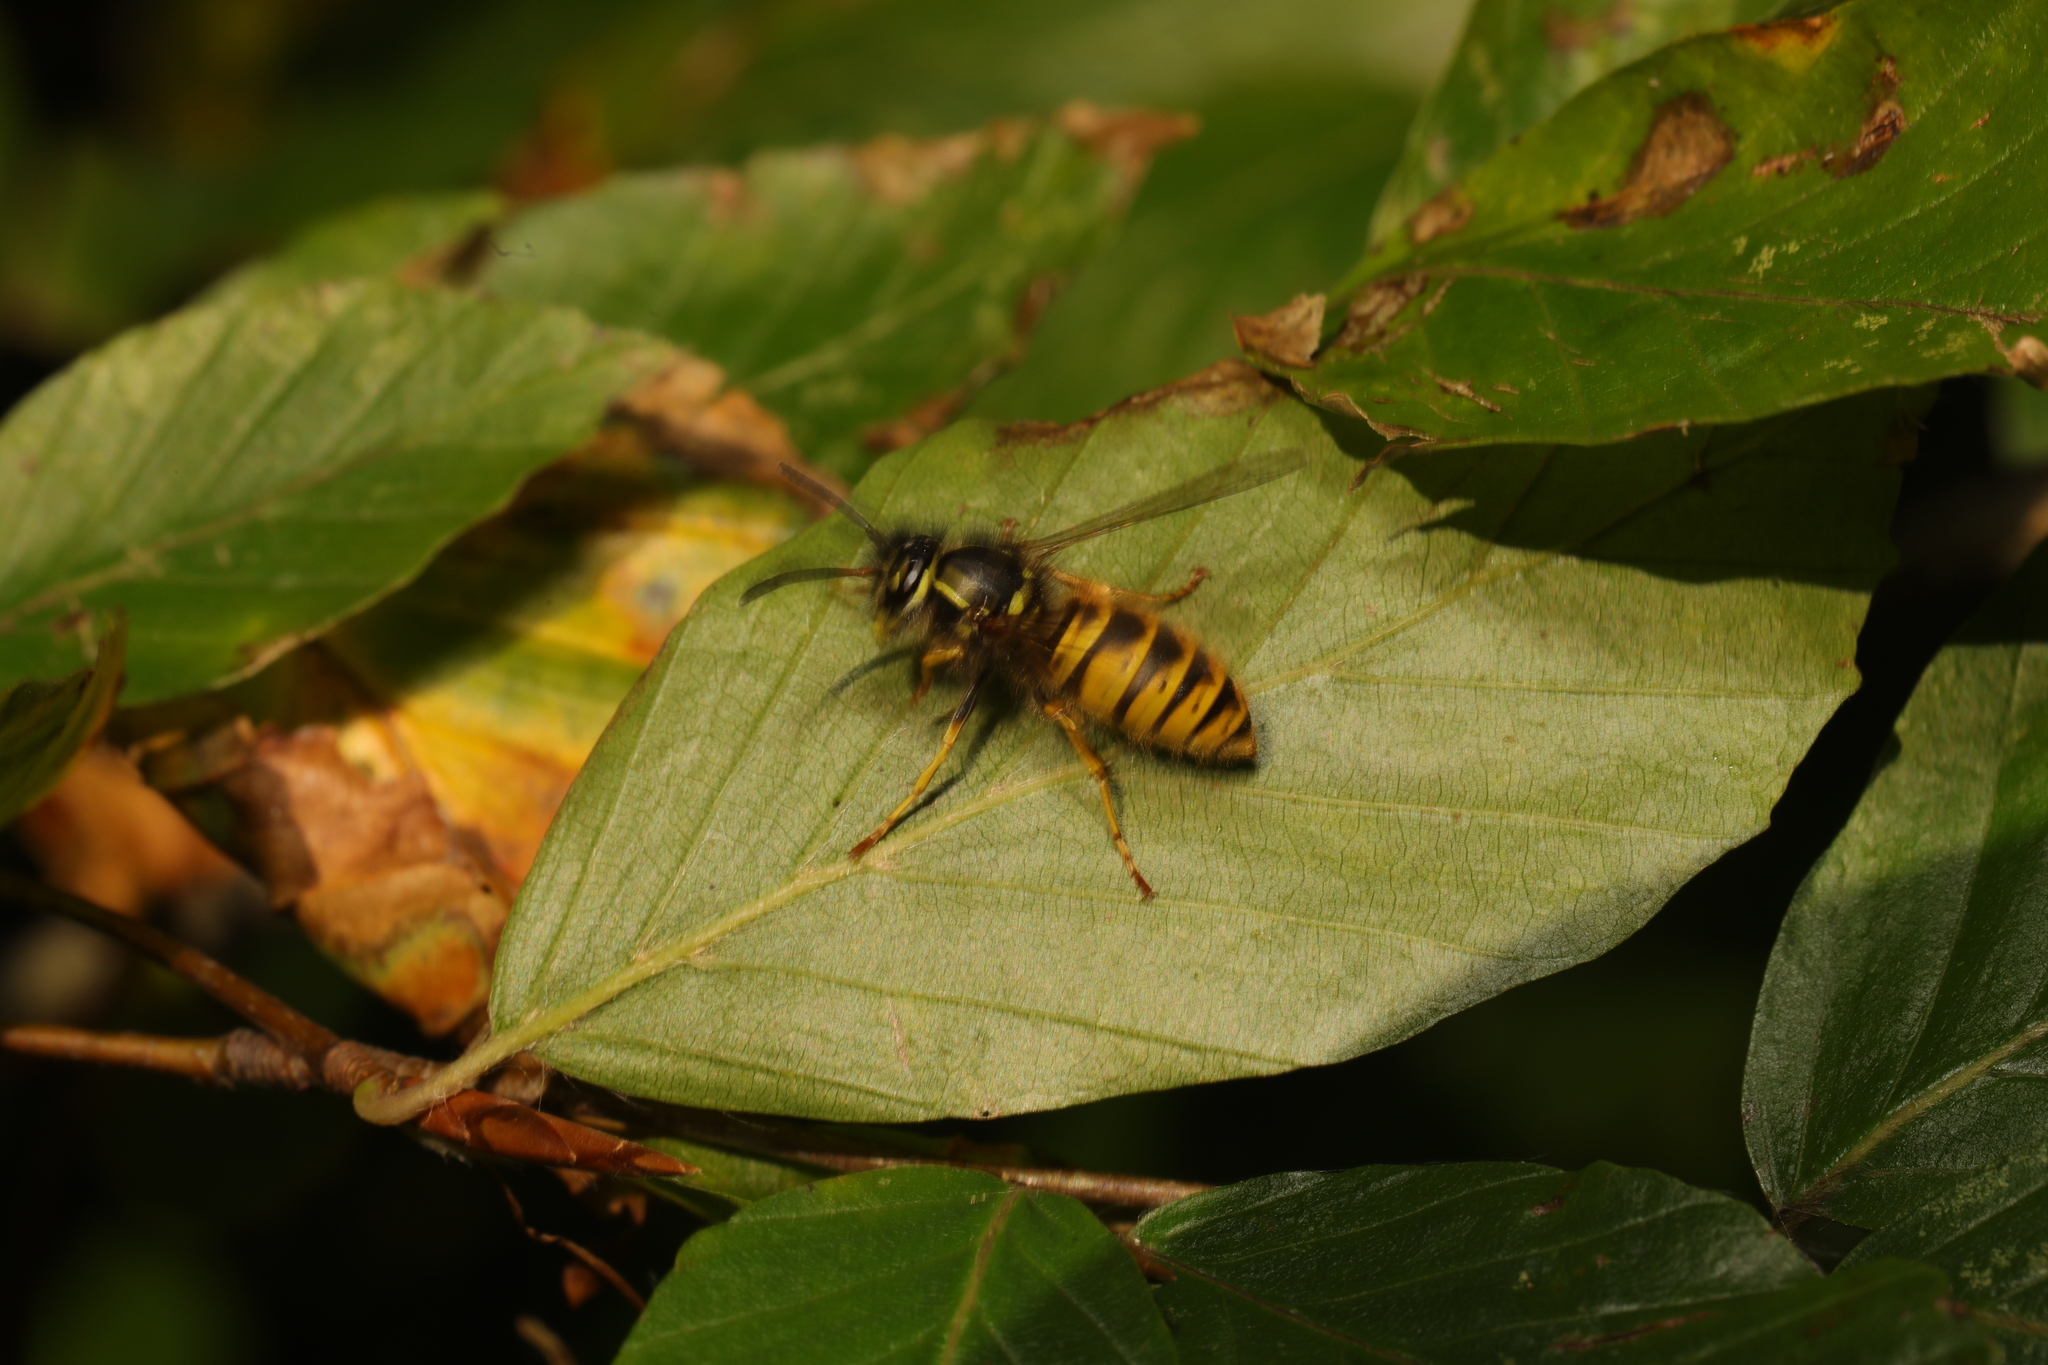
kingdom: Animalia
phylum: Arthropoda
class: Insecta
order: Hymenoptera
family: Vespidae
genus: Vespula
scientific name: Vespula vulgaris
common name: Common wasp
